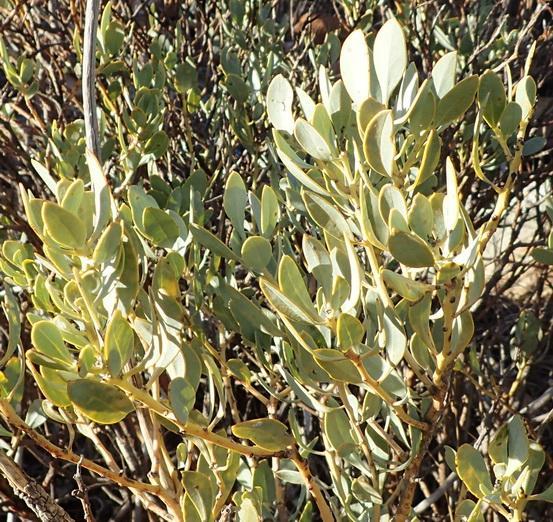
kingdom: Plantae
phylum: Tracheophyta
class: Magnoliopsida
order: Fabales
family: Fabaceae
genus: Rafnia
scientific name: Rafnia elliptica
